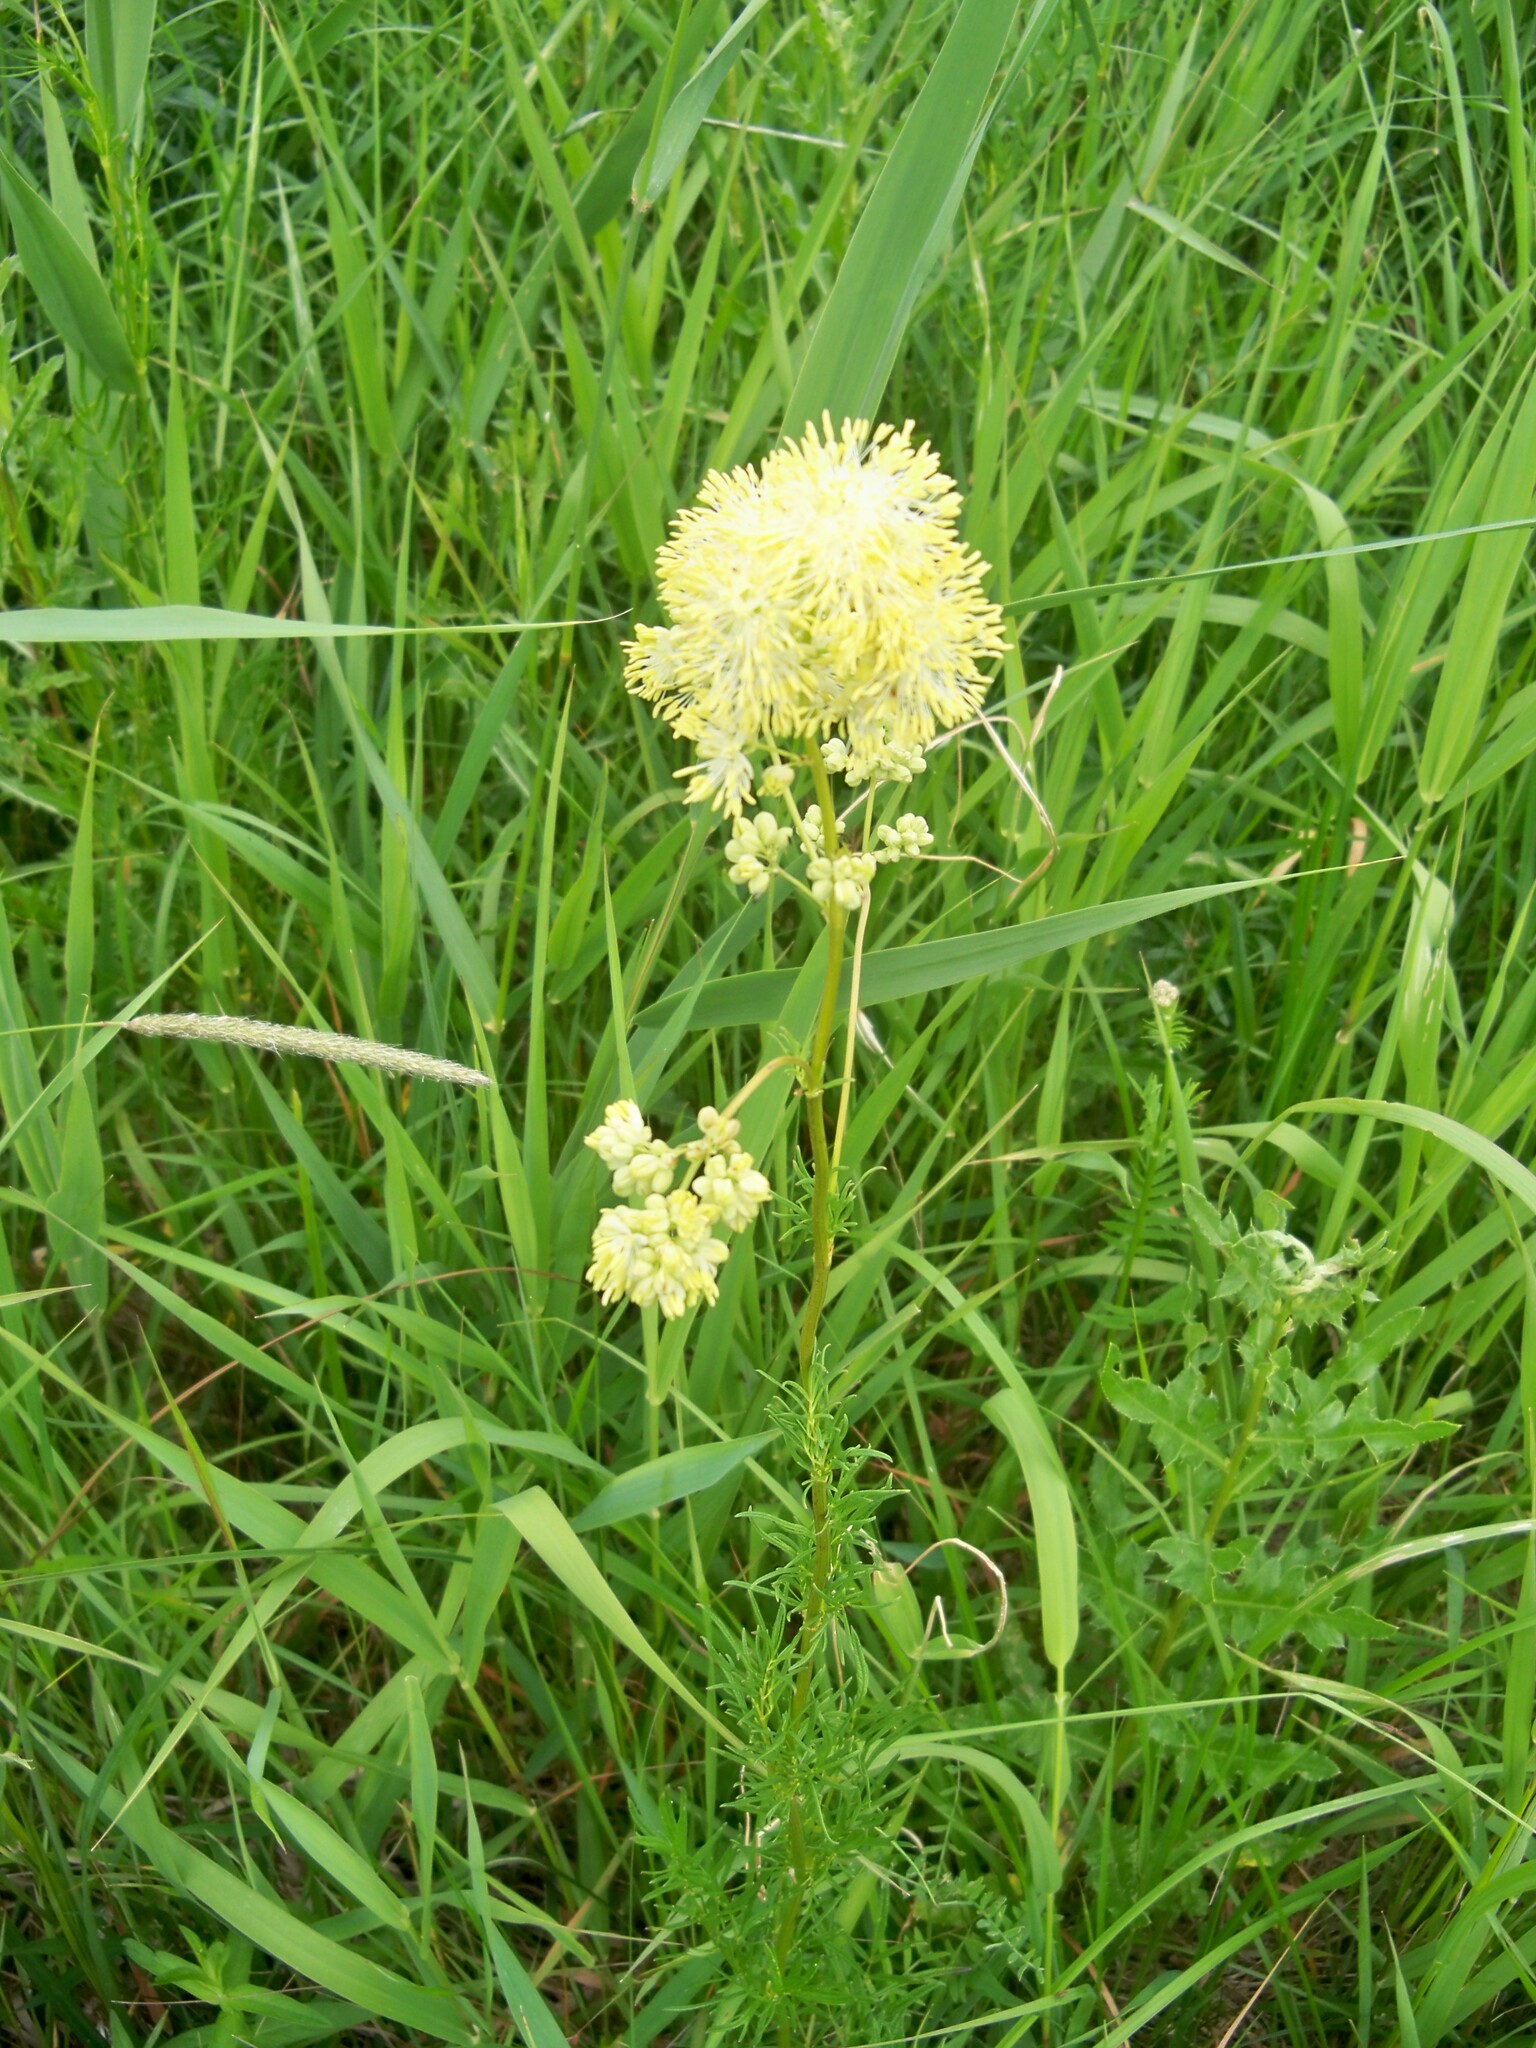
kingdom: Plantae
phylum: Tracheophyta
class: Magnoliopsida
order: Ranunculales
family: Ranunculaceae
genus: Thalictrum
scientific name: Thalictrum lucidum
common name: Shining meadow-rue
